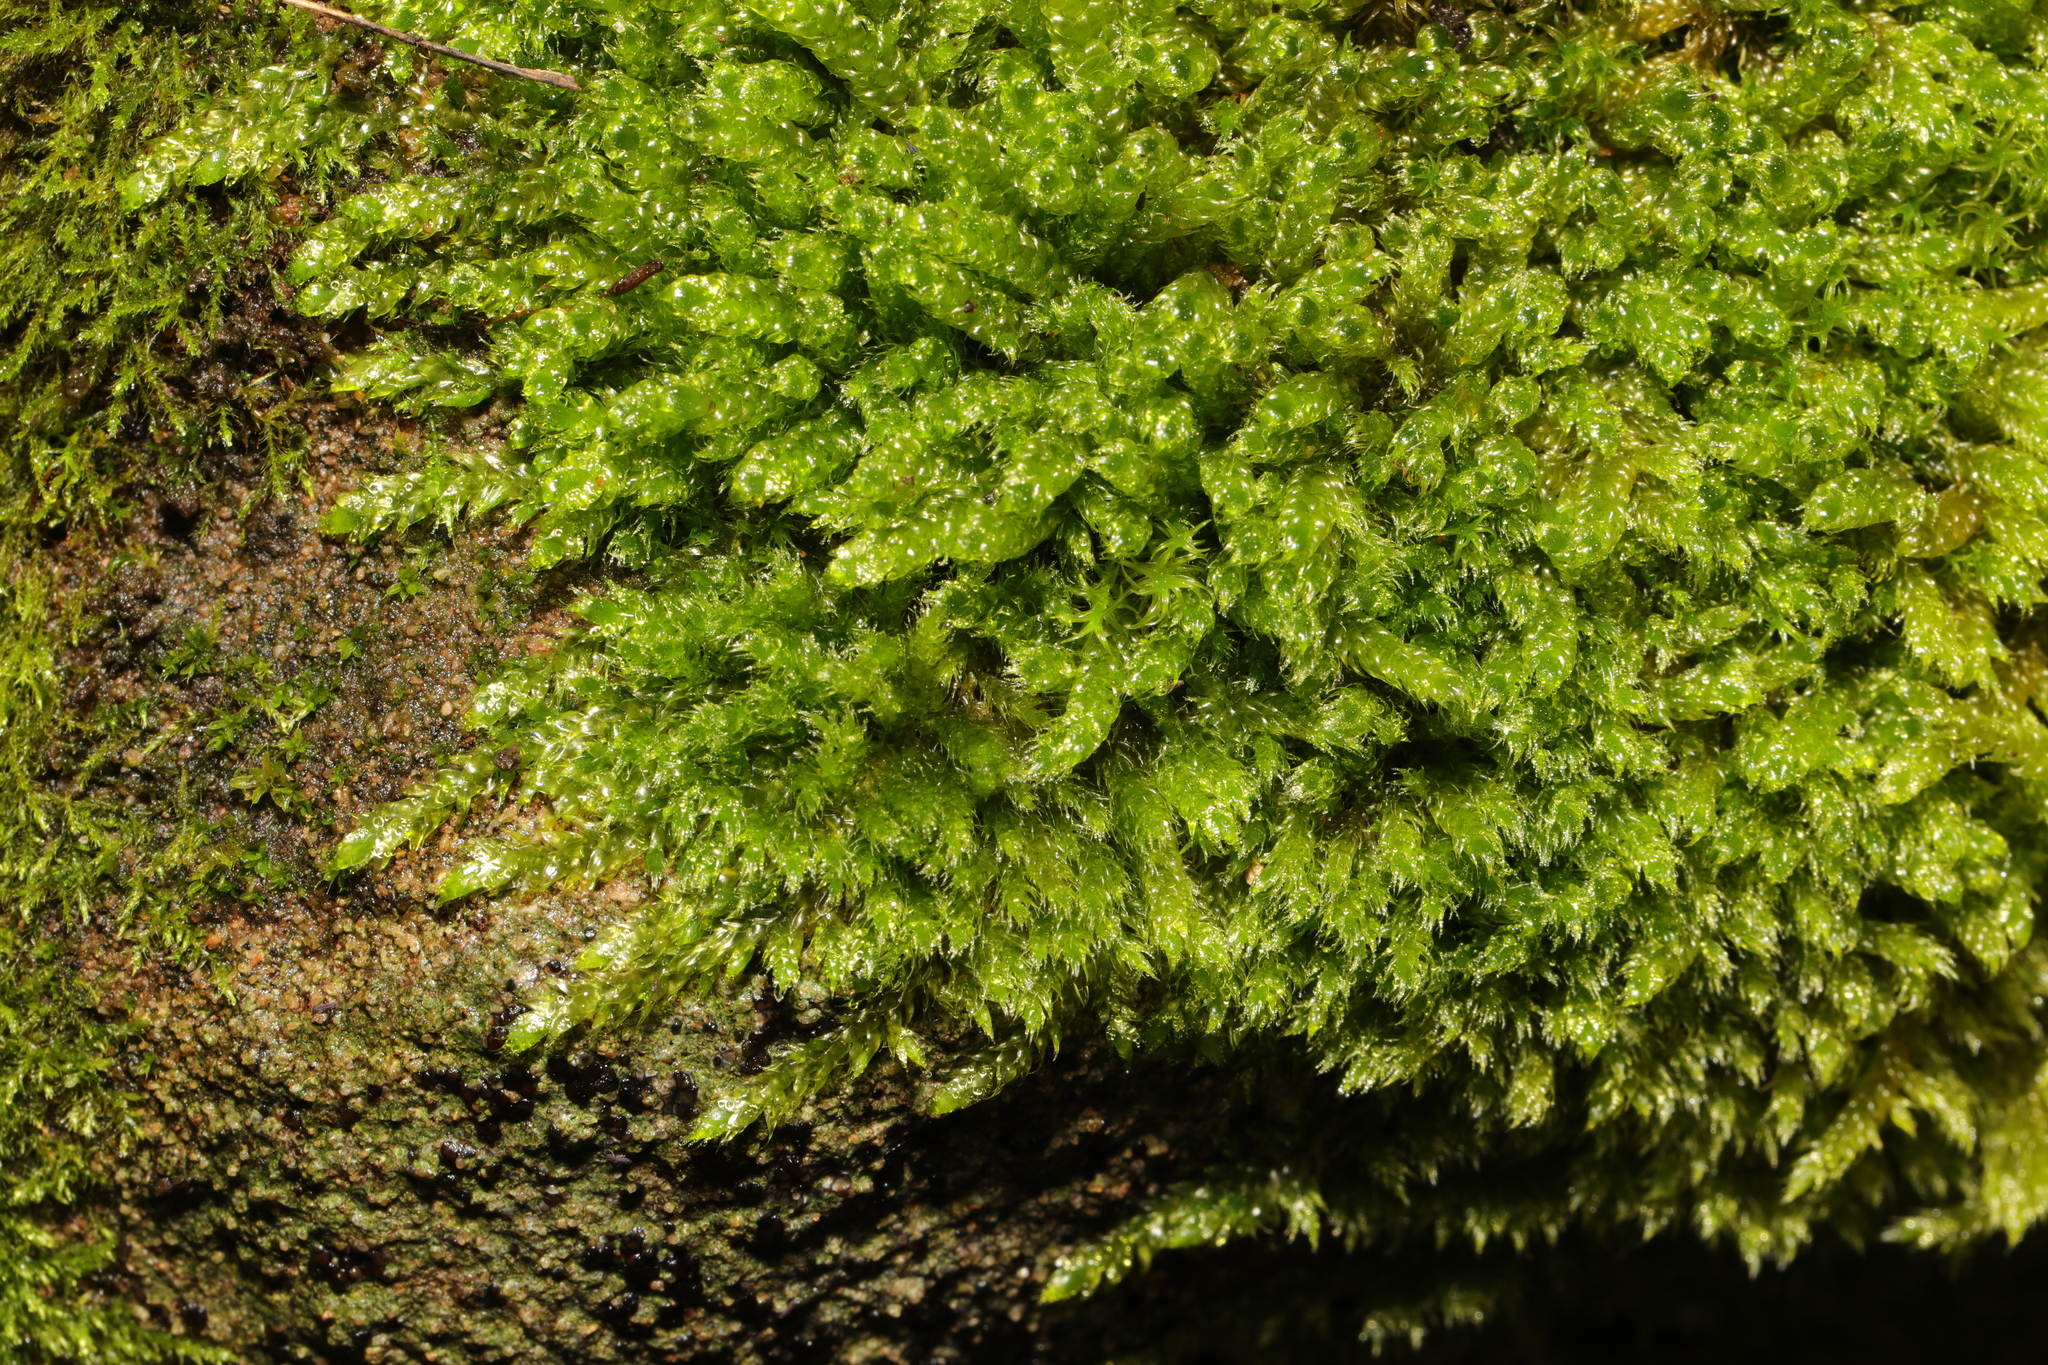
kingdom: Plantae
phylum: Bryophyta
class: Bryopsida
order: Hypnales
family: Hypnaceae
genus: Hypnum
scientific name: Hypnum cupressiforme
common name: Cypress-leaved plait-moss
